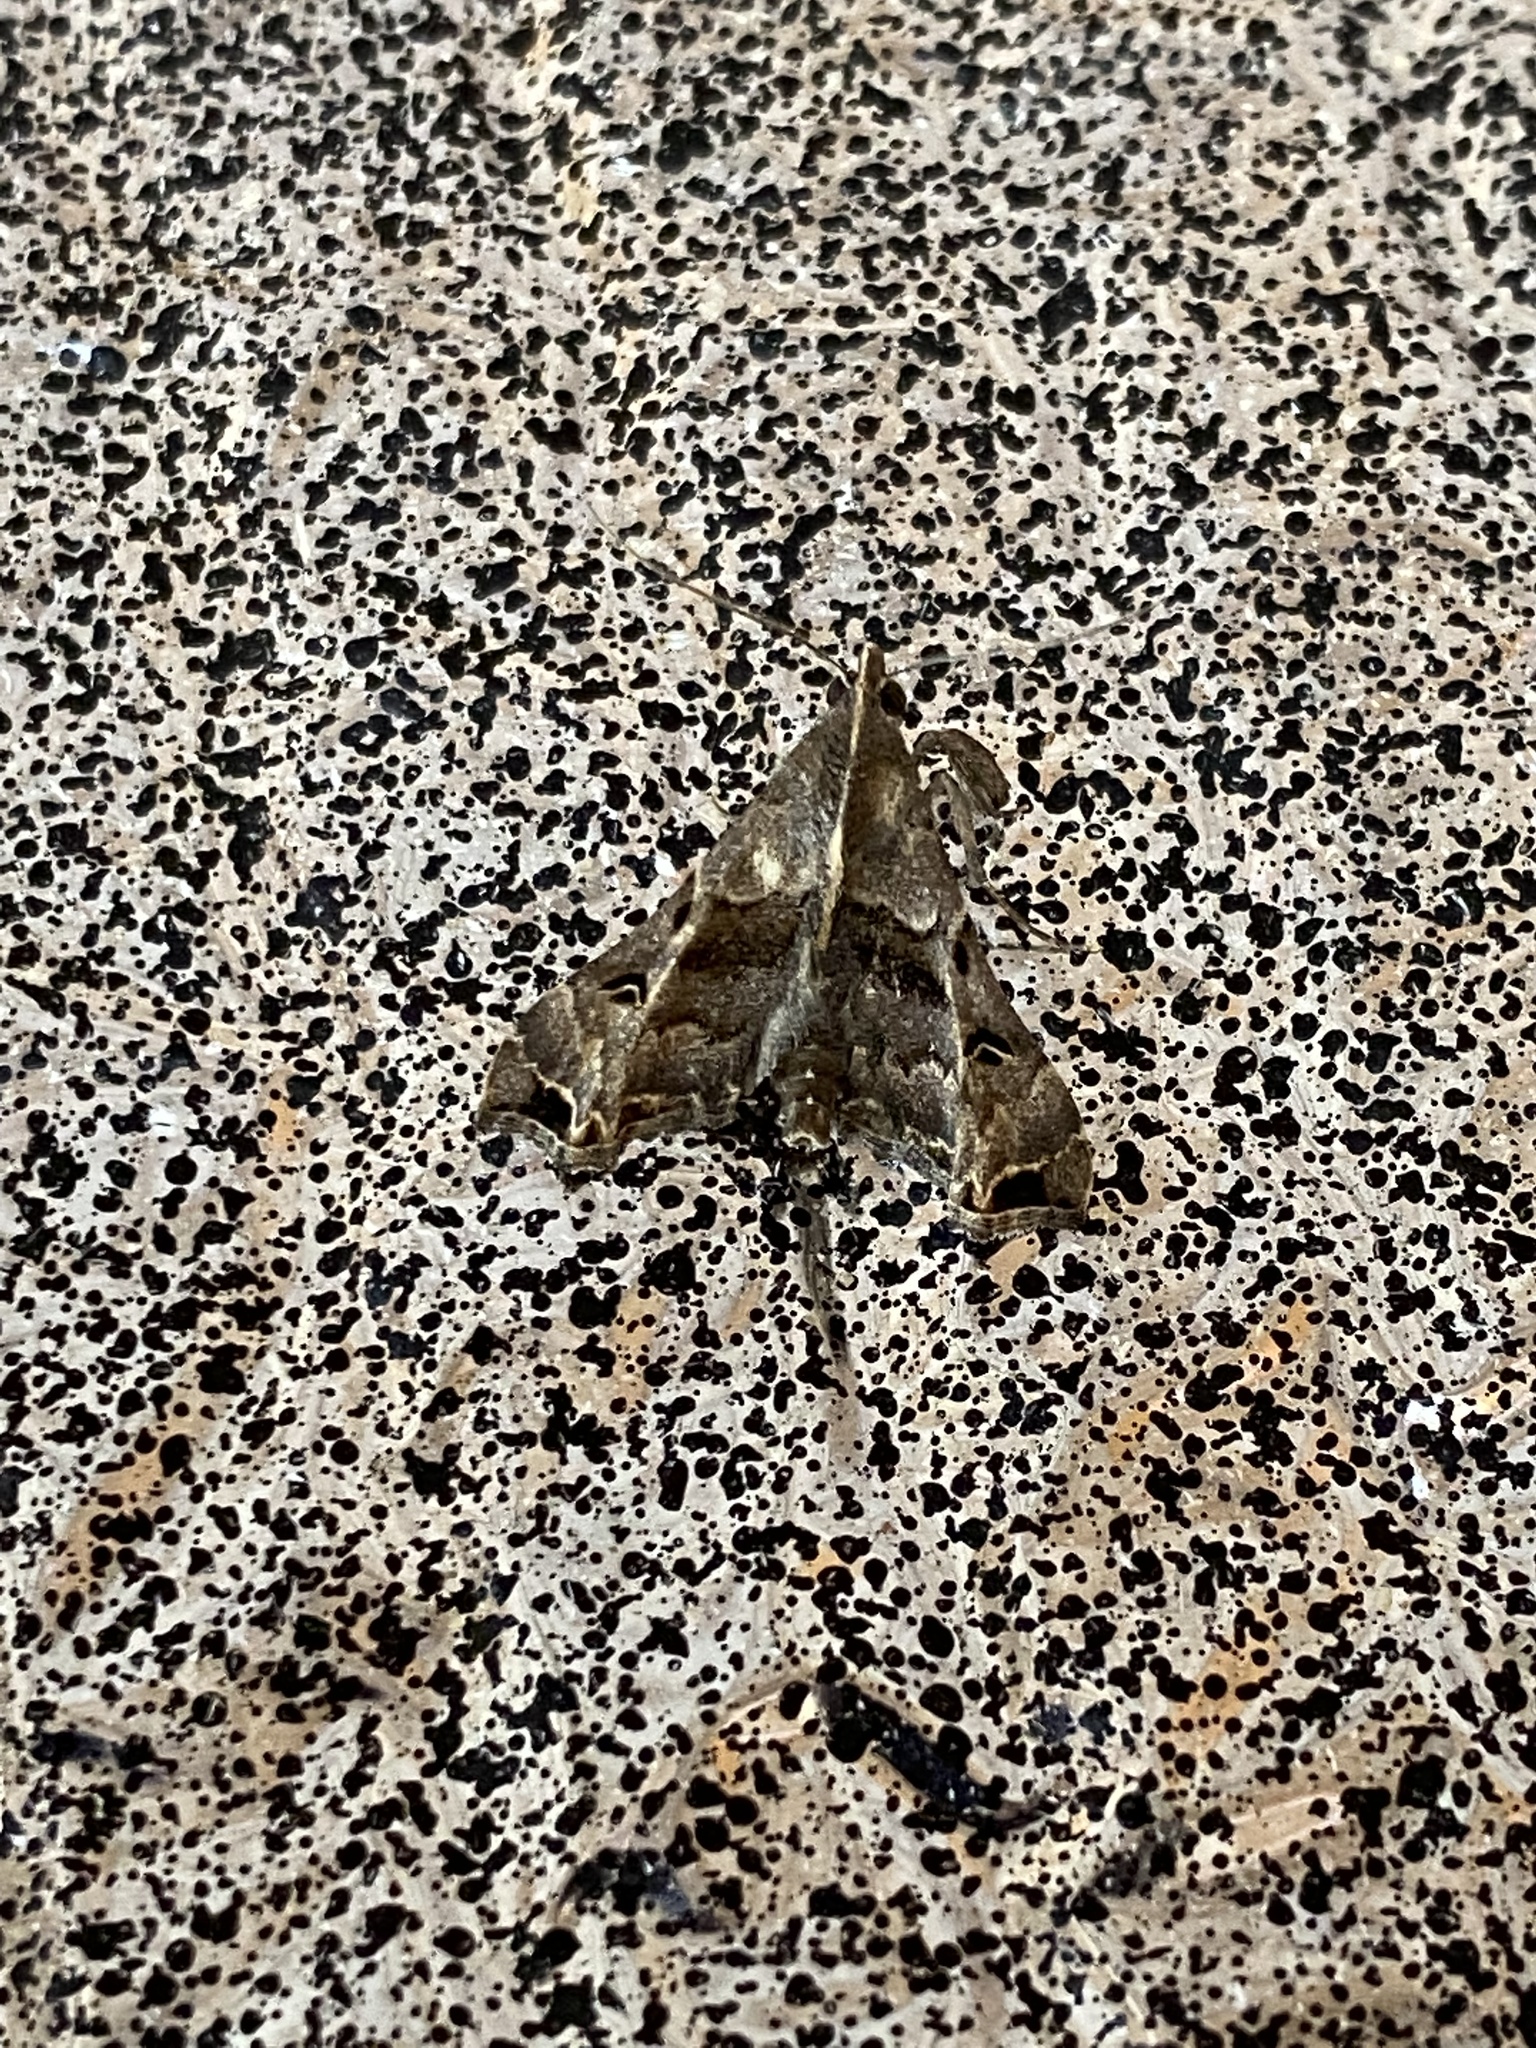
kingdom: Animalia
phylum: Arthropoda
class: Insecta
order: Lepidoptera
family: Erebidae
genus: Palthis
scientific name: Palthis asopialis
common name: Faint-spotted palthis moth
